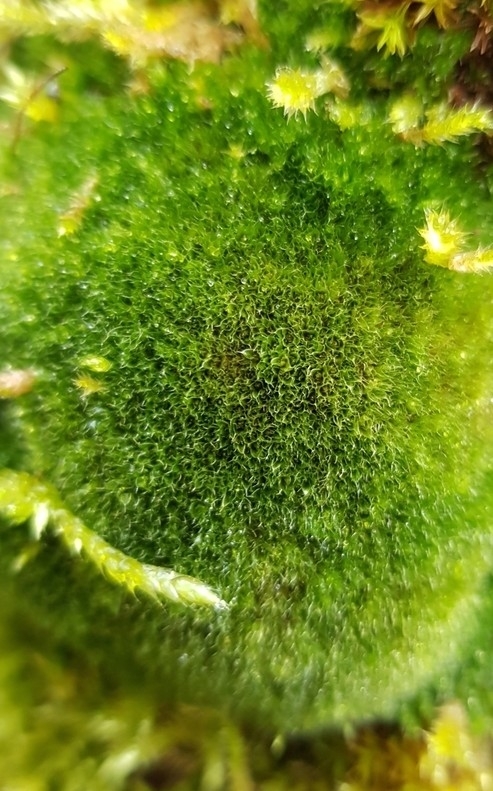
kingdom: Plantae
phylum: Bryophyta
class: Bryopsida
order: Bryales
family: Bryaceae
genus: Rosulabryum
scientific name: Rosulabryum capillare
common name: Capillary thread-moss
